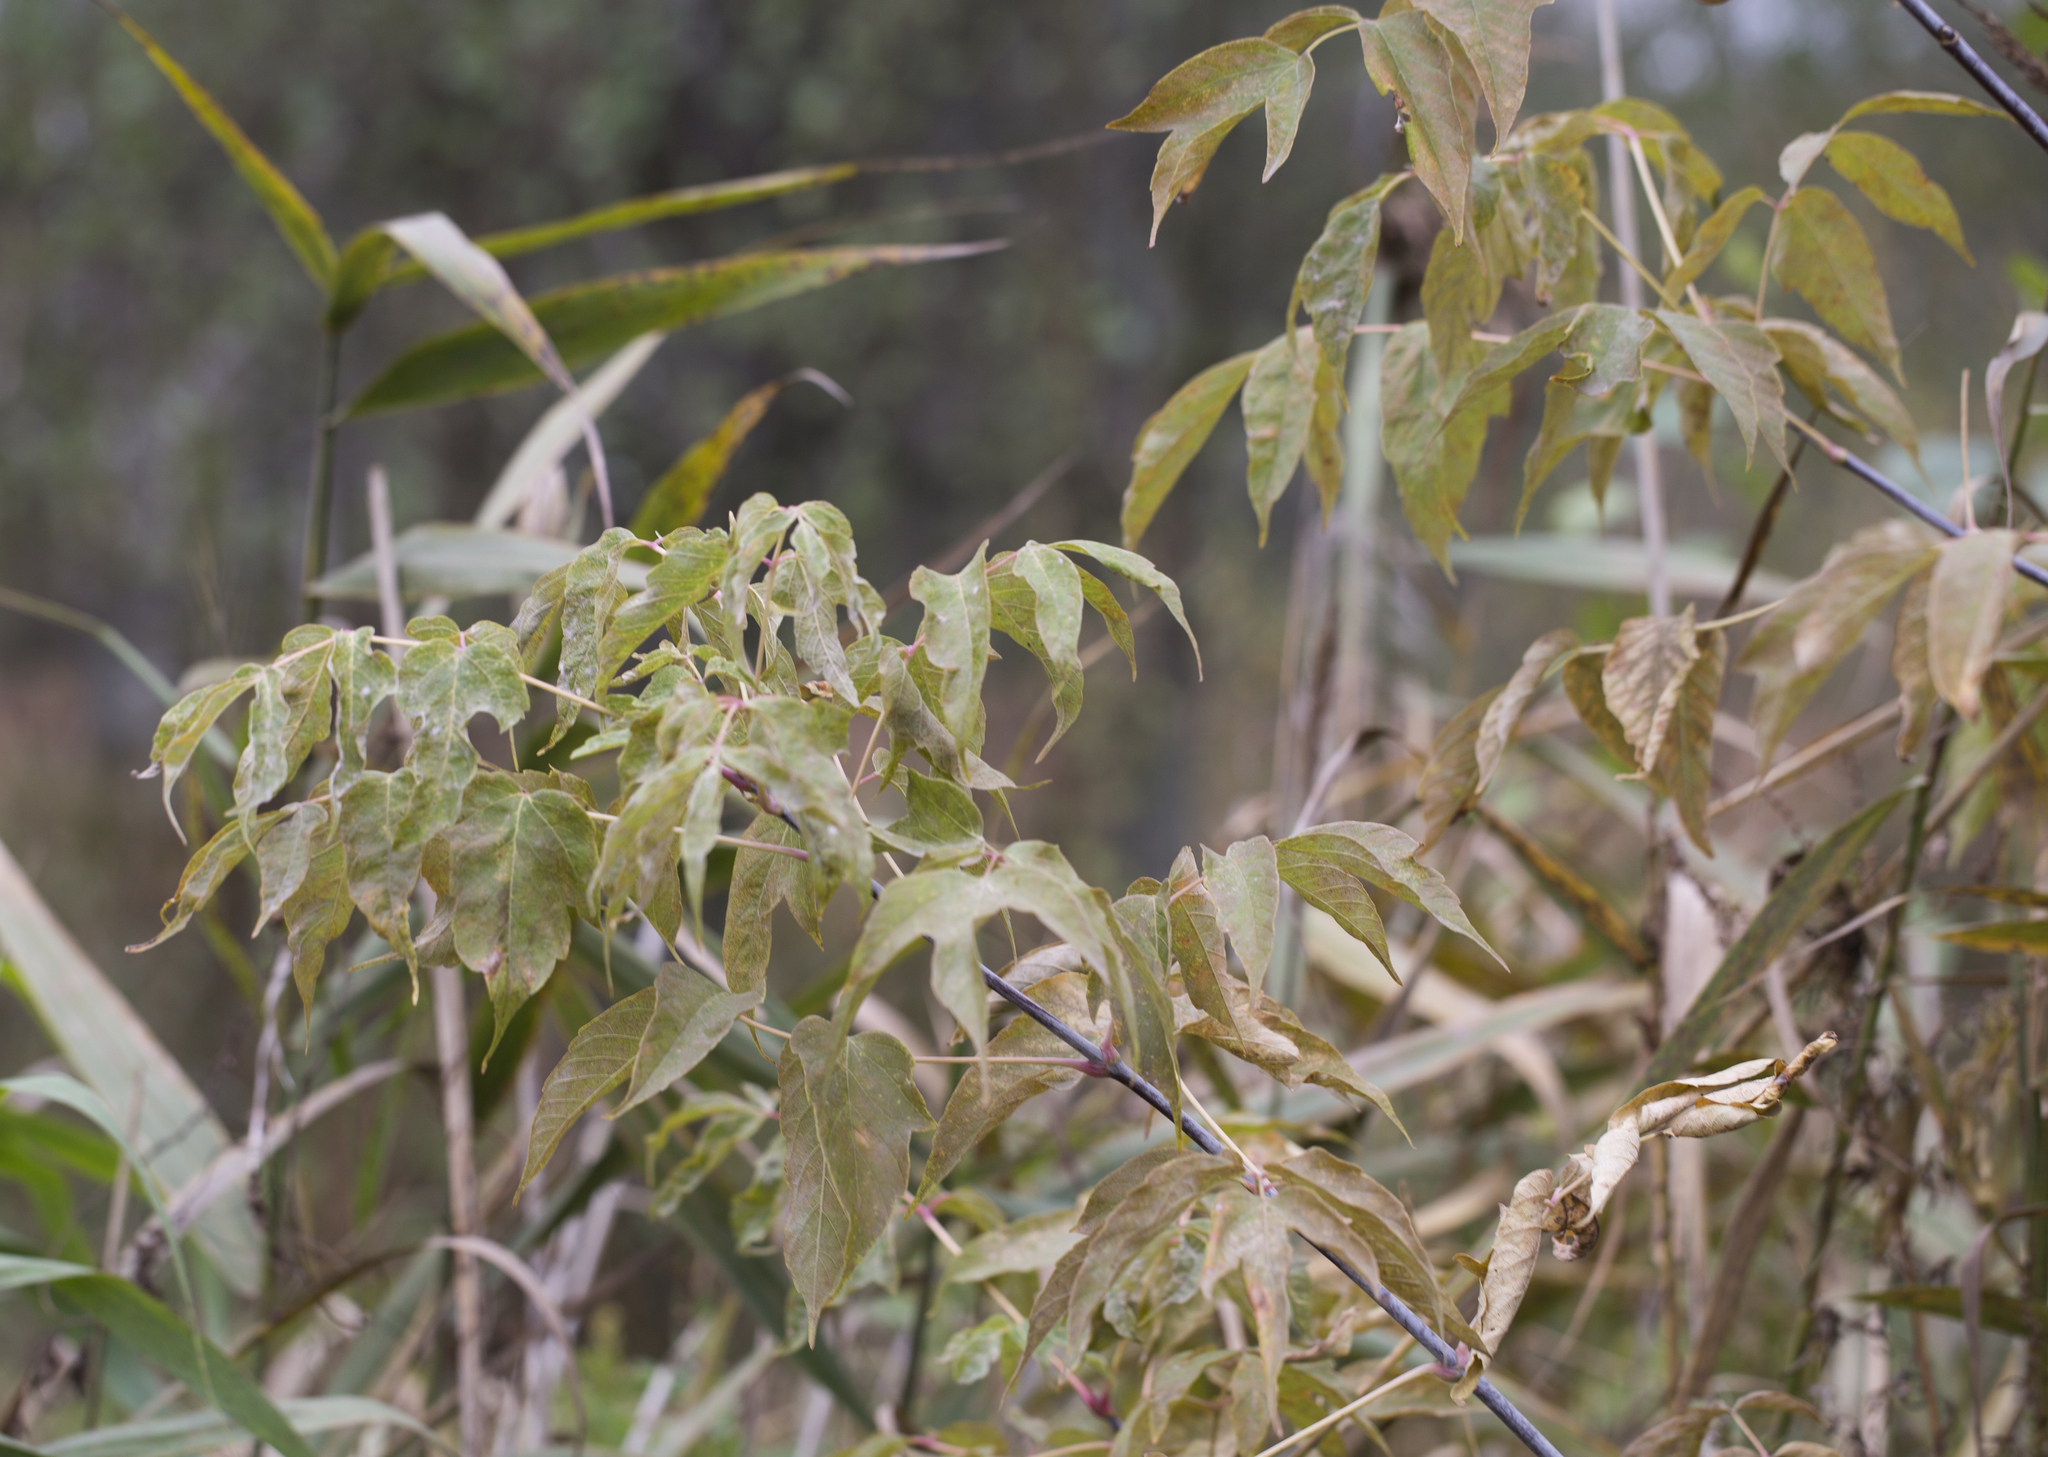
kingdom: Plantae
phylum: Tracheophyta
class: Magnoliopsida
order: Sapindales
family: Sapindaceae
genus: Acer
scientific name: Acer negundo
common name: Ashleaf maple
